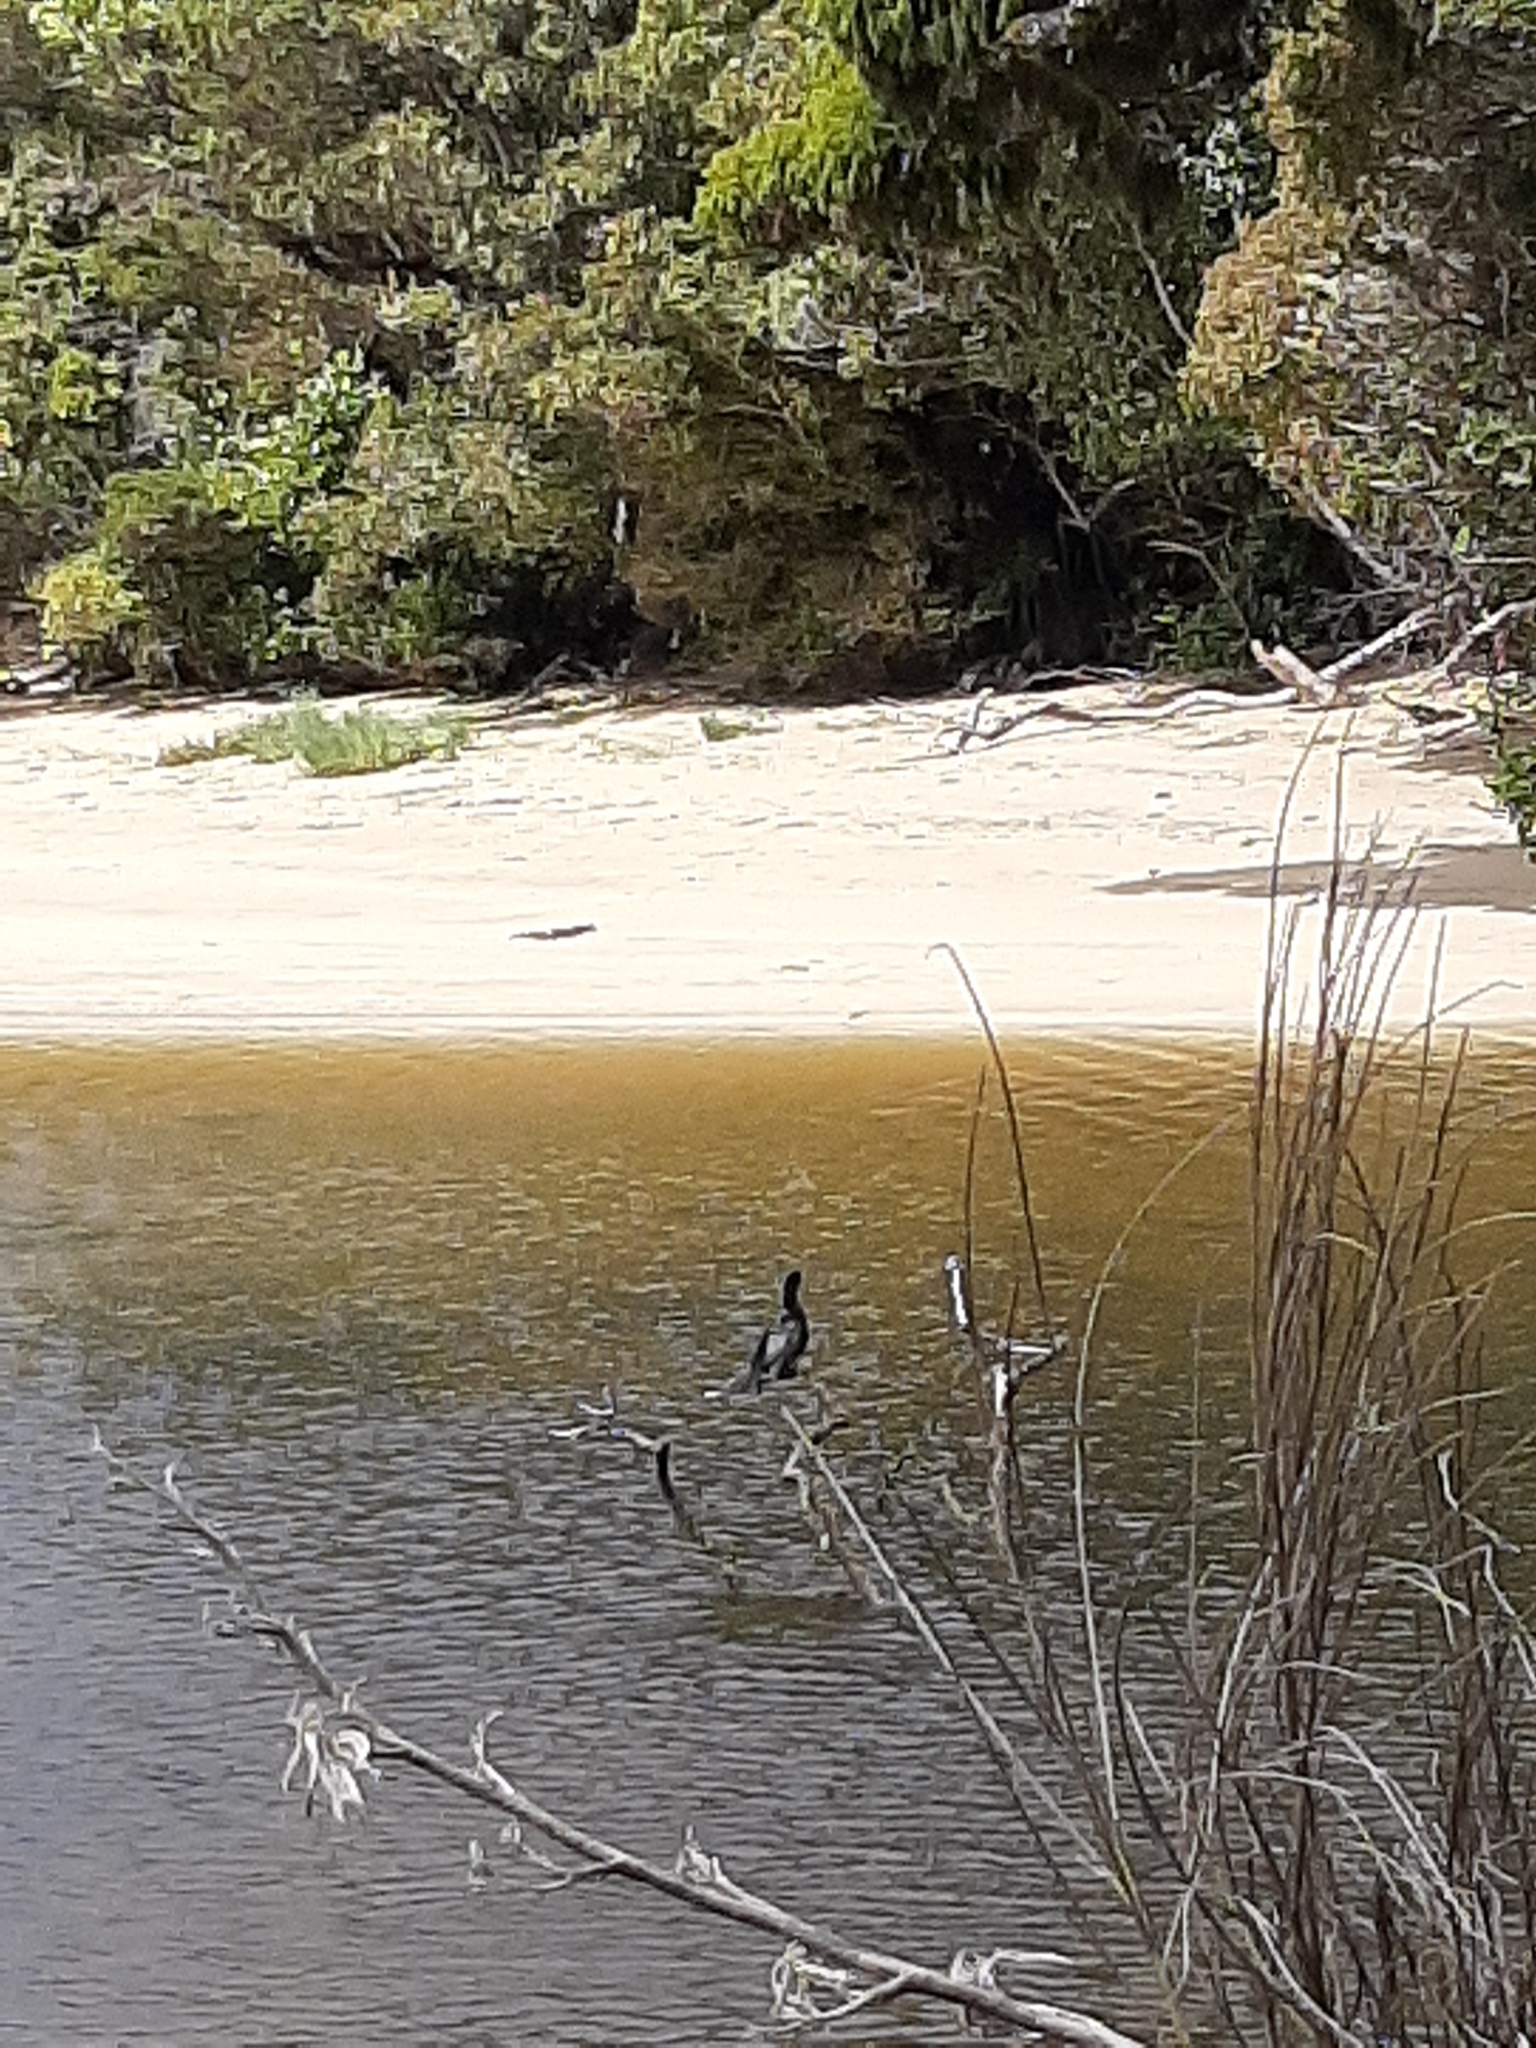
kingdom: Animalia
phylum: Chordata
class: Aves
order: Suliformes
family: Phalacrocoracidae
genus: Microcarbo
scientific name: Microcarbo melanoleucos
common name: Little pied cormorant
